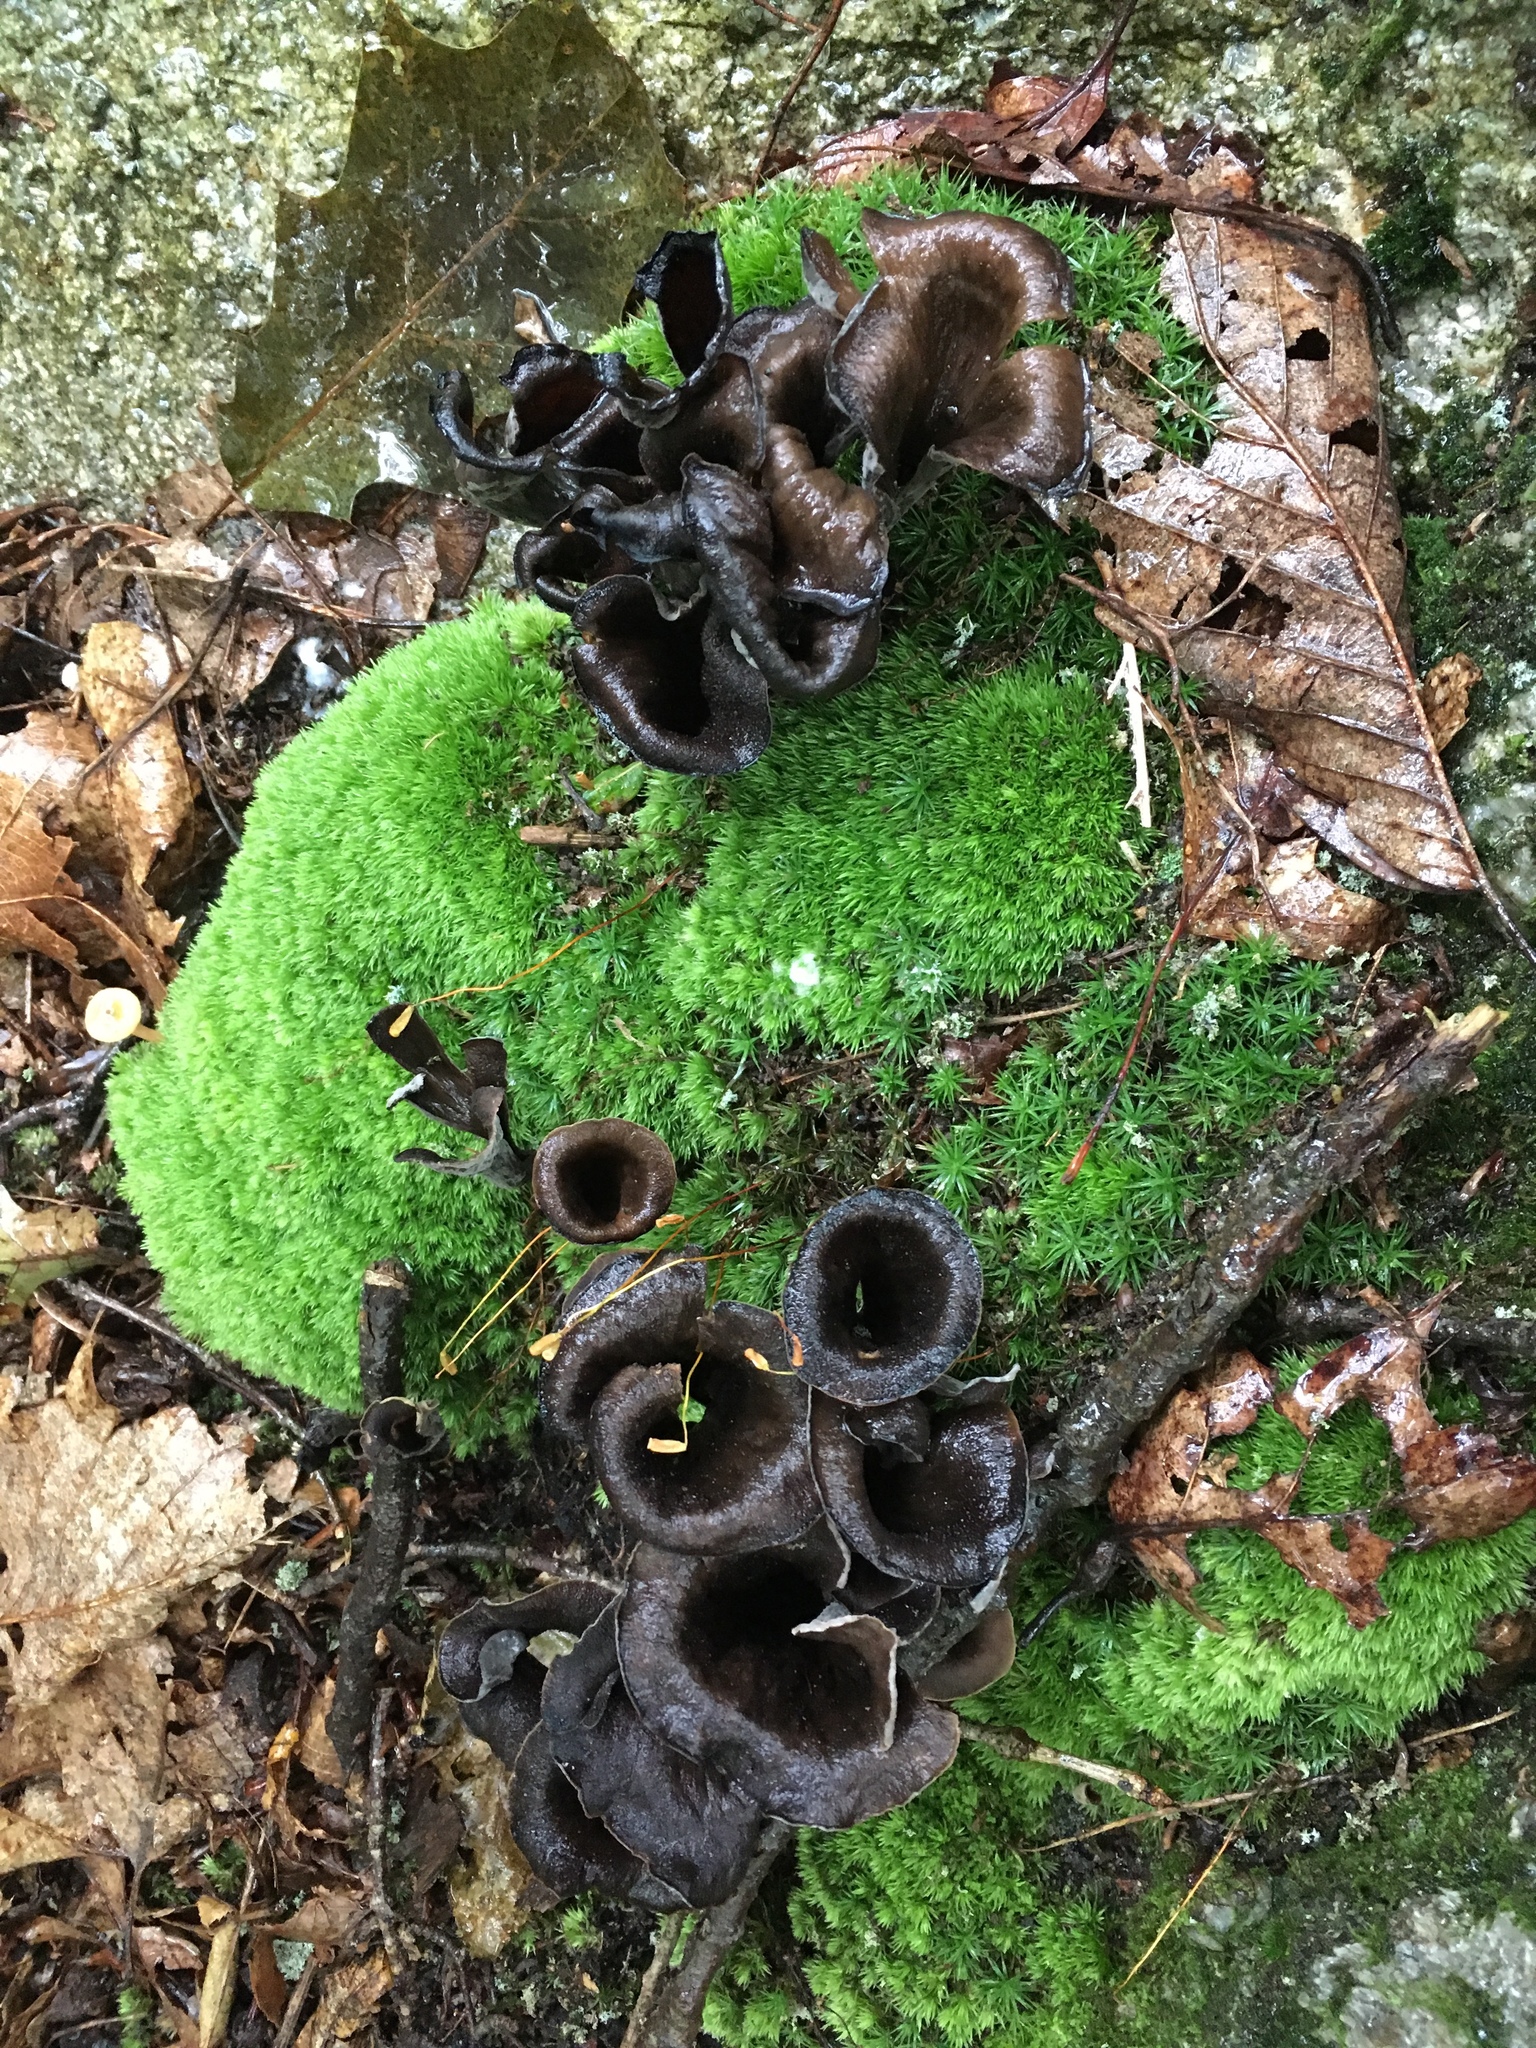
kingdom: Fungi
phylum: Basidiomycota
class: Agaricomycetes
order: Cantharellales
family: Hydnaceae
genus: Craterellus
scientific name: Craterellus cornucopioides
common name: Horn of plenty
